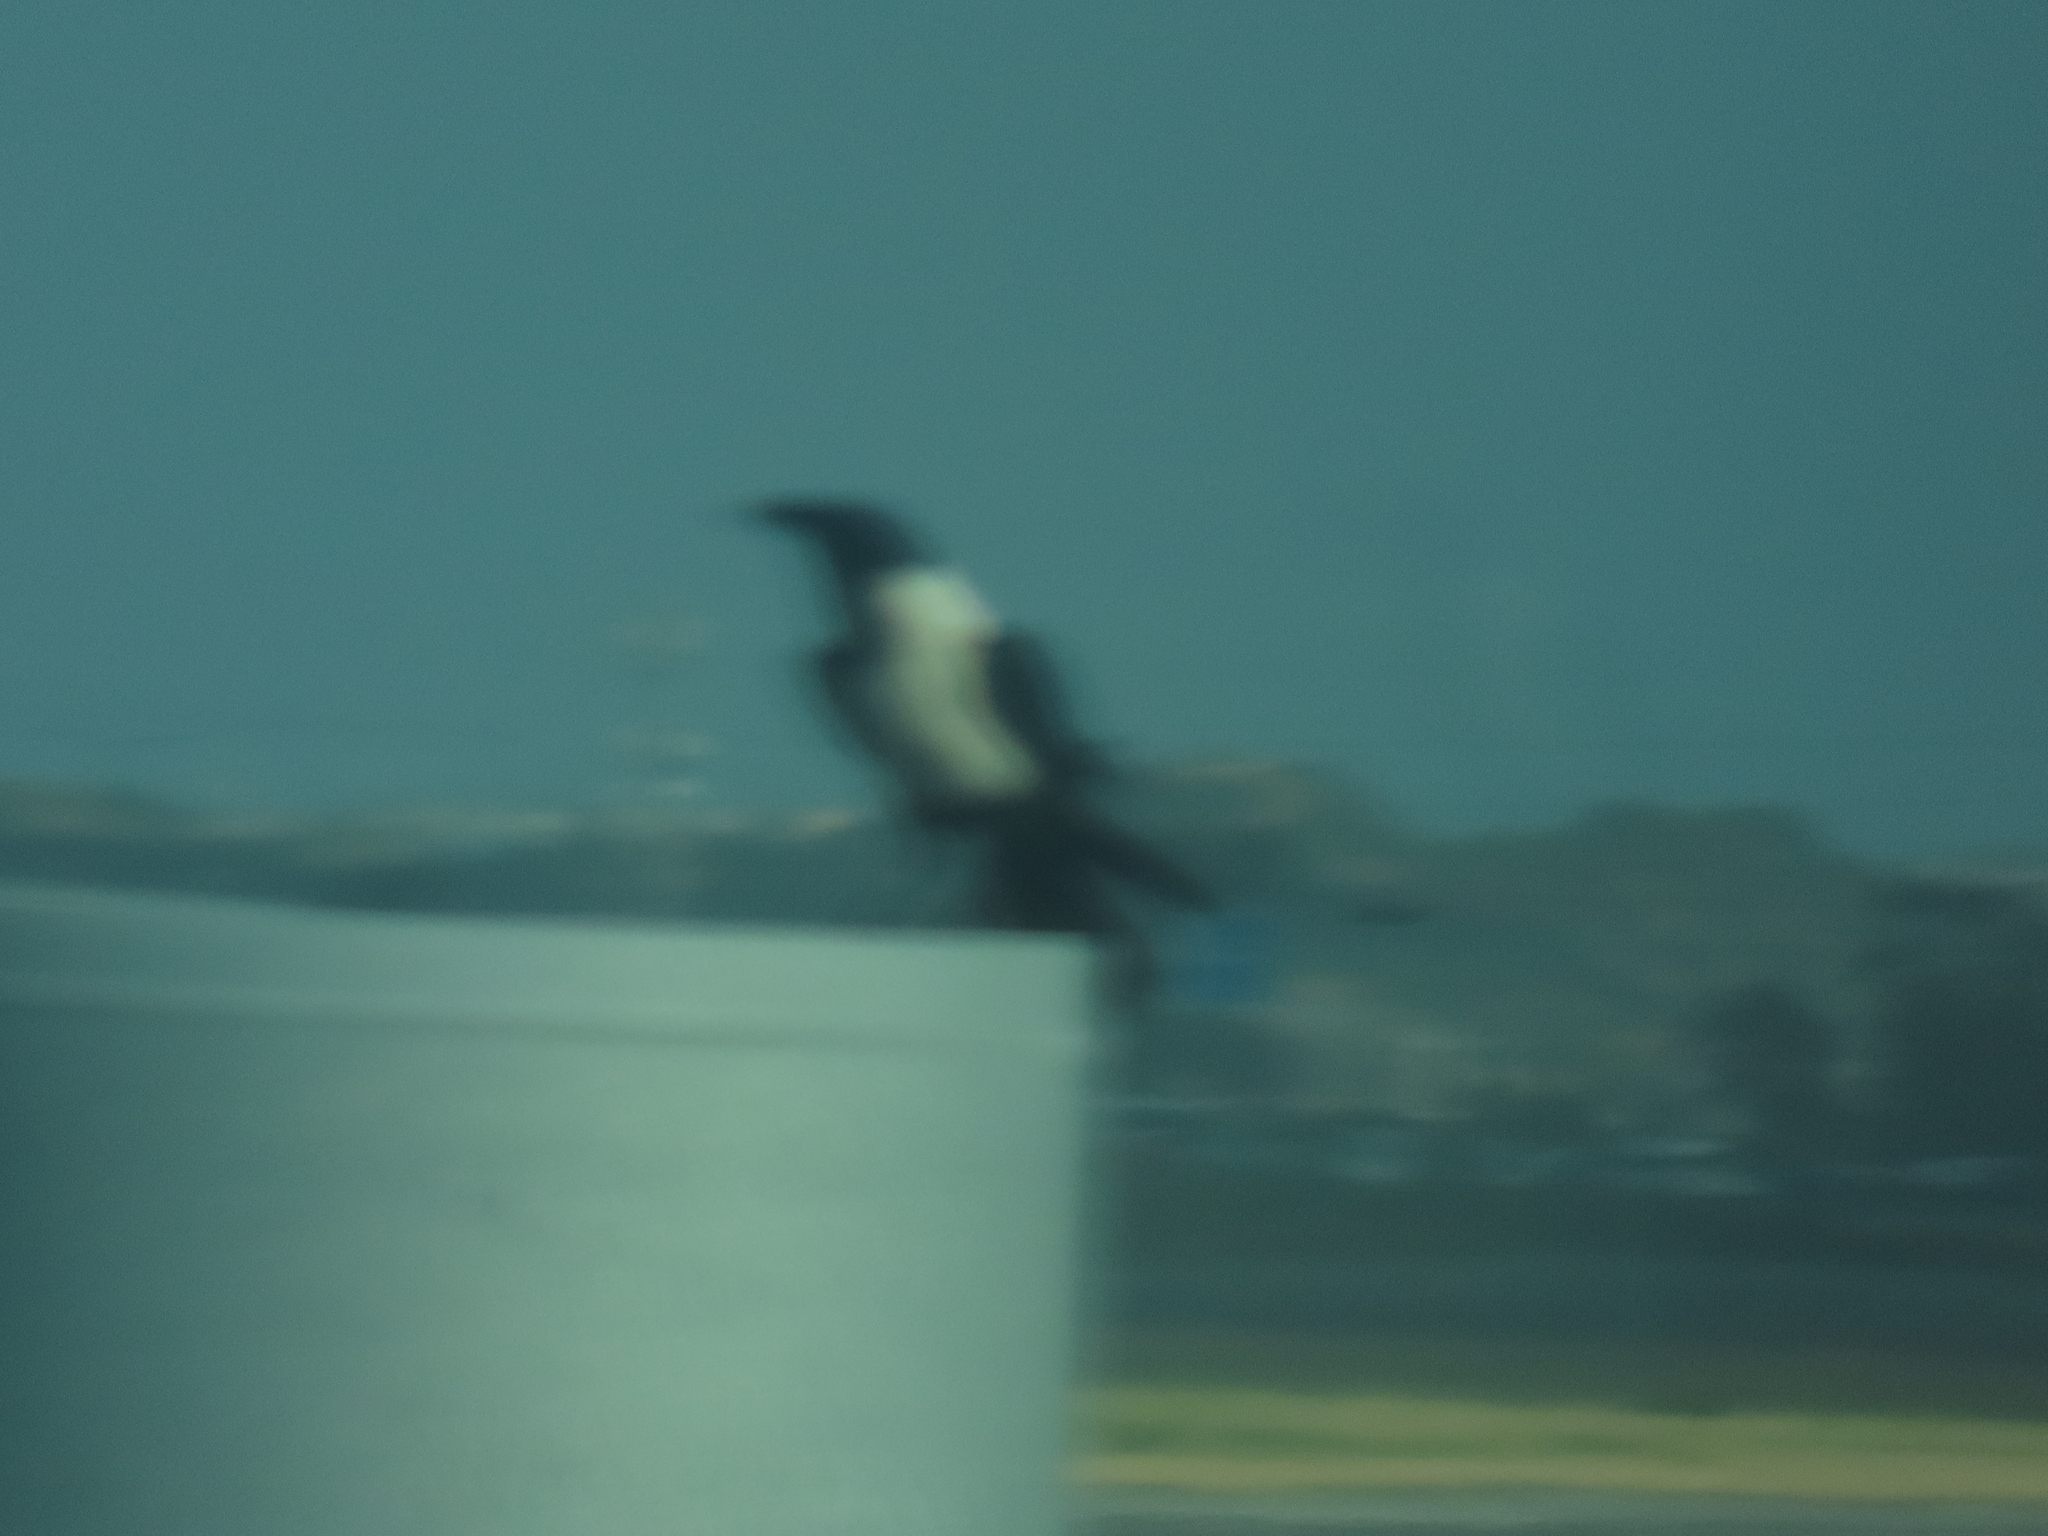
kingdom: Animalia
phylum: Chordata
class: Aves
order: Passeriformes
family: Corvidae
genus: Corvus
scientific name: Corvus albus
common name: Pied crow
